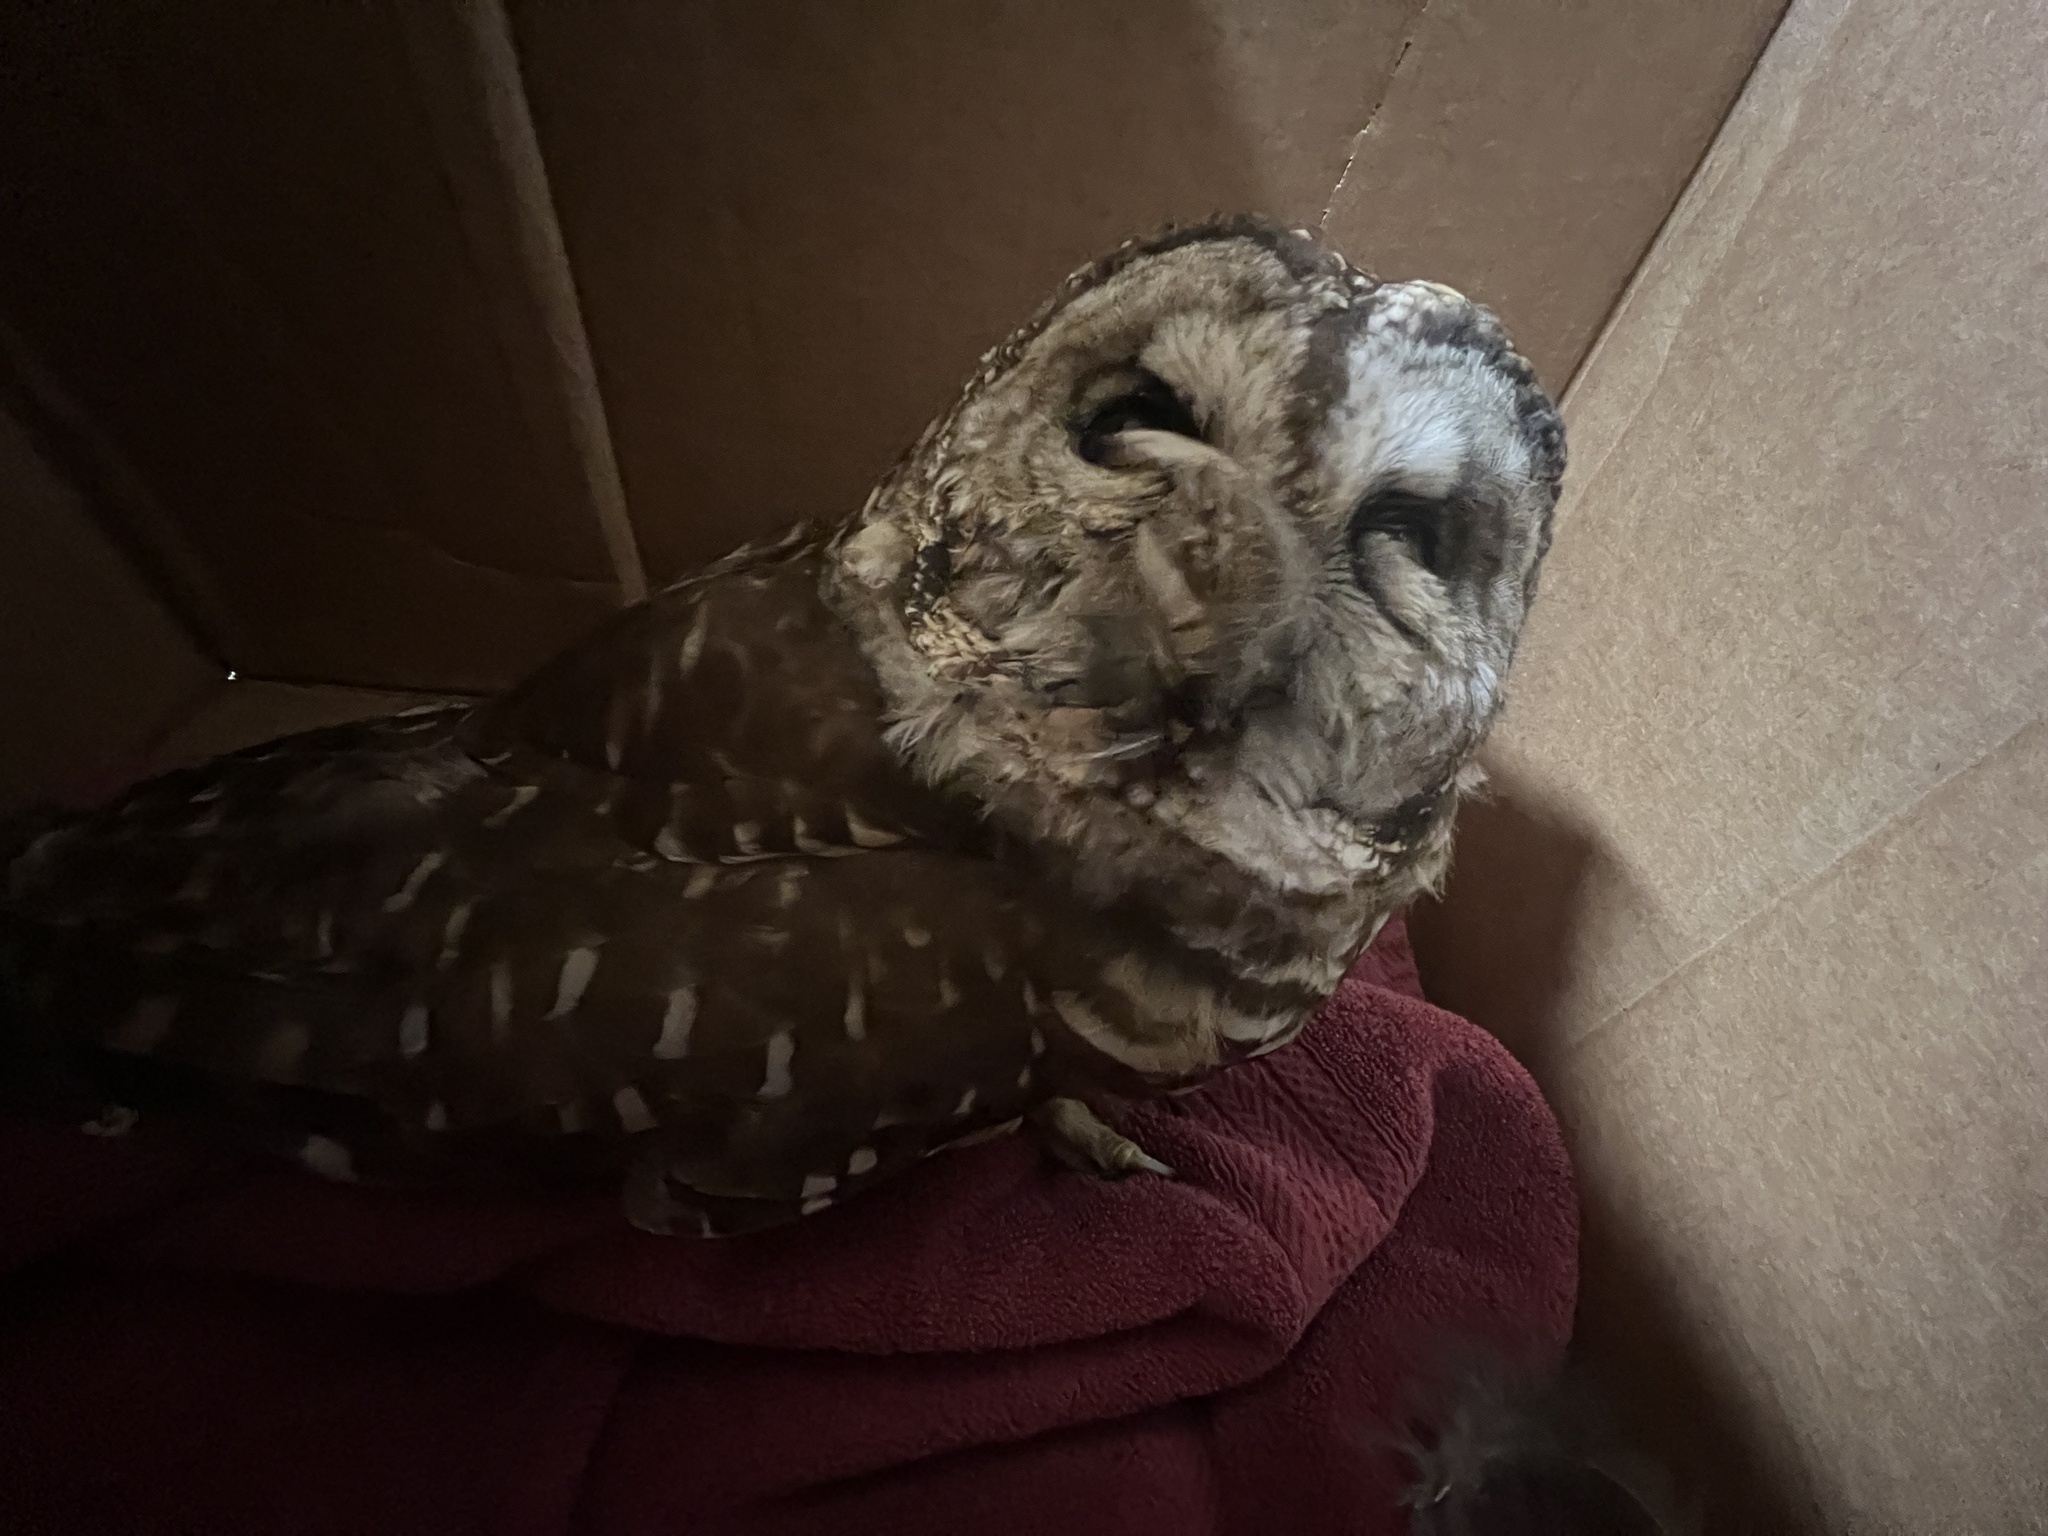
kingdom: Animalia
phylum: Chordata
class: Aves
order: Strigiformes
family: Strigidae
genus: Strix
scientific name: Strix varia
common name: Barred owl
